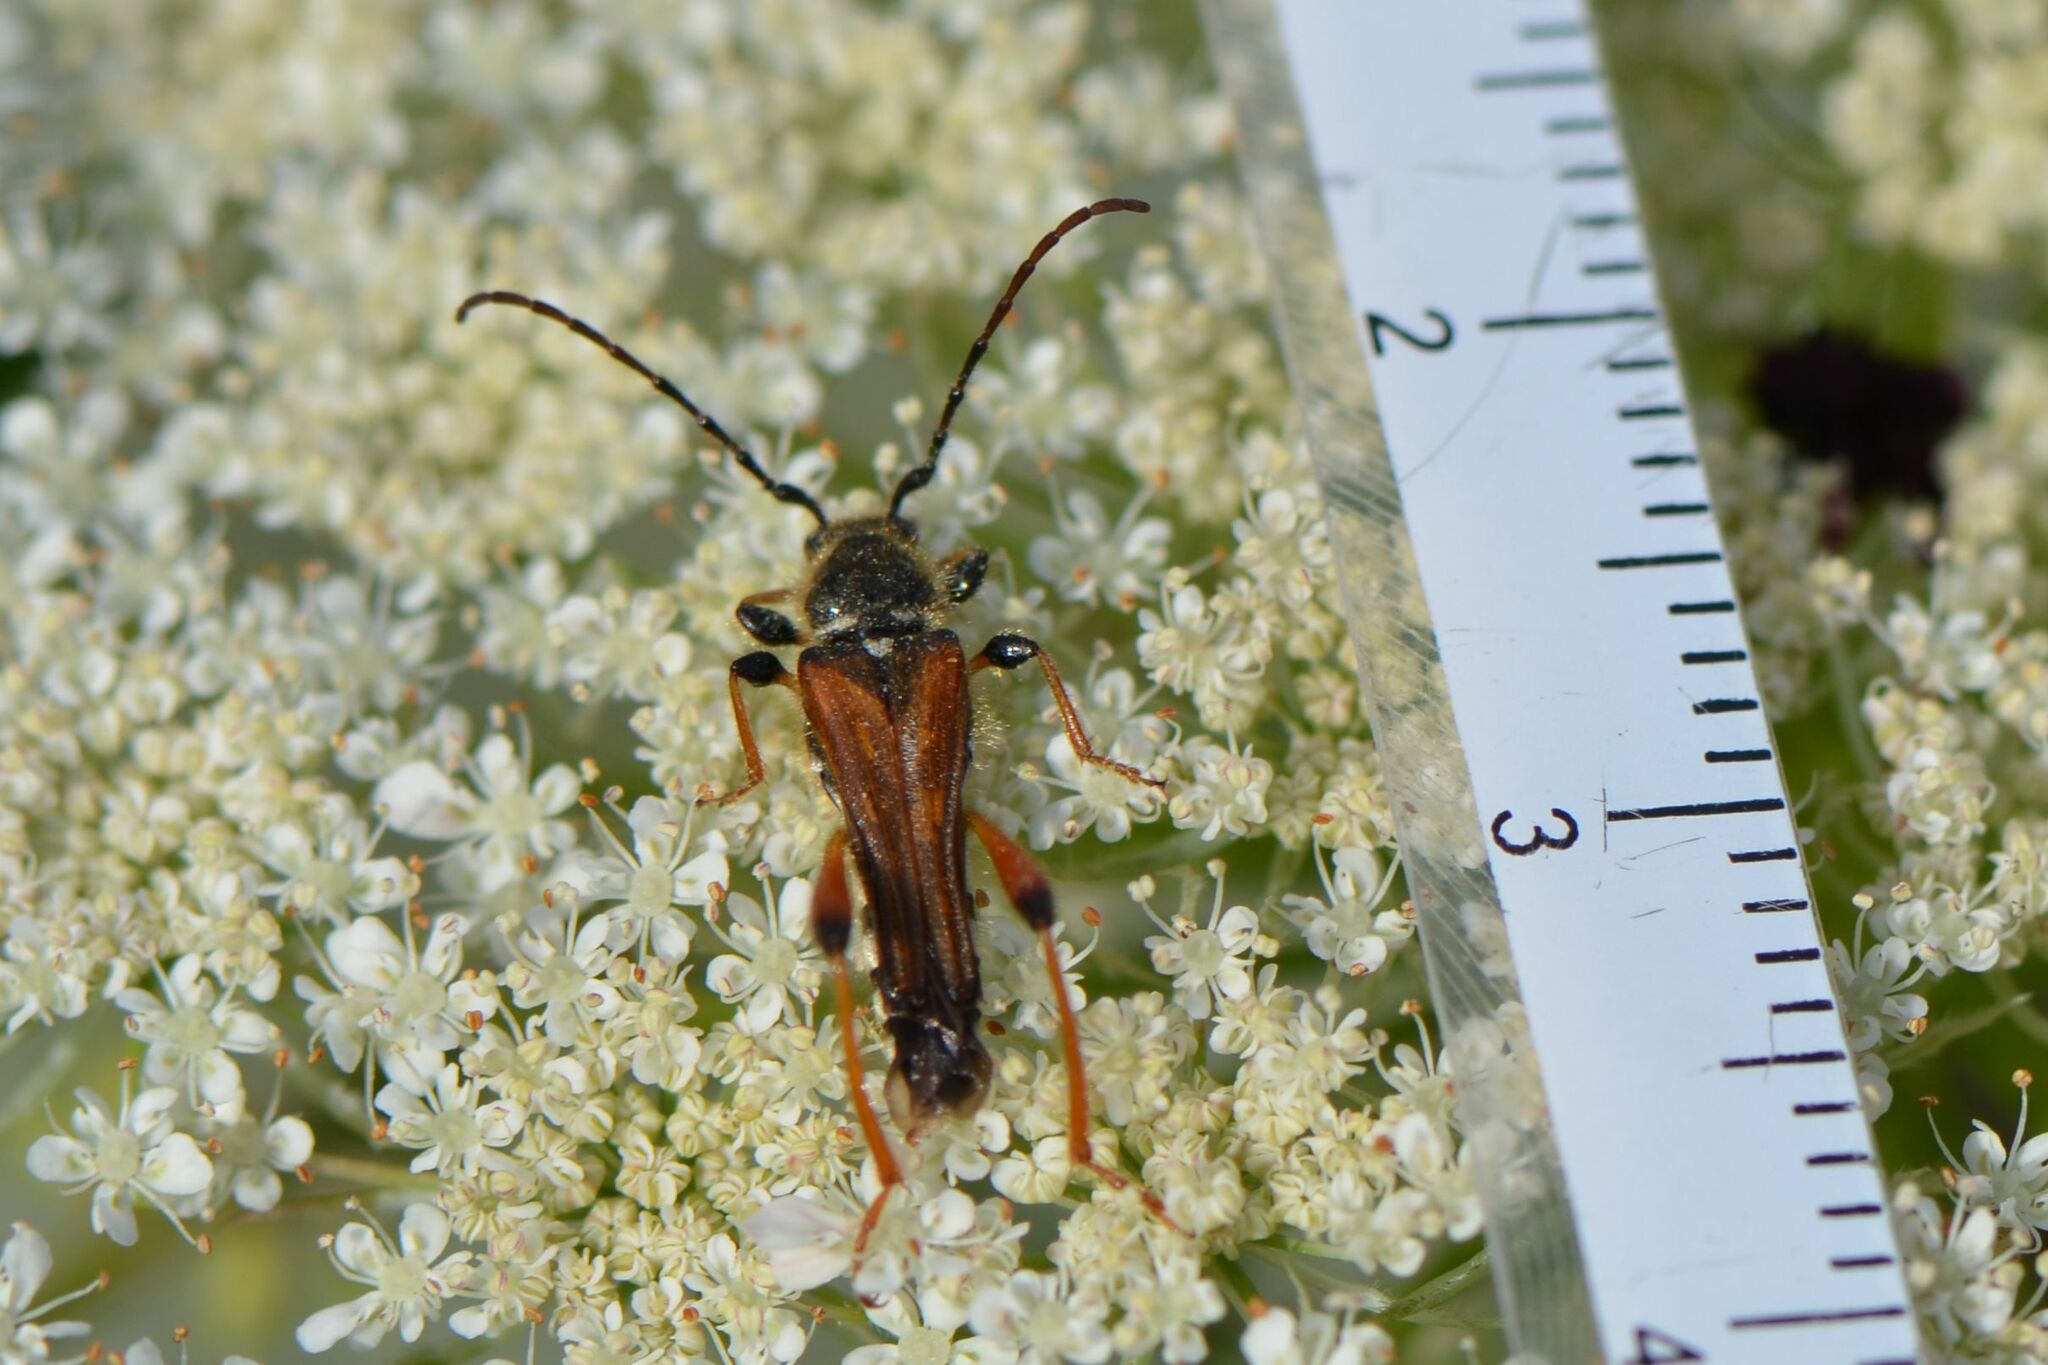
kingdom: Animalia
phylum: Arthropoda
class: Insecta
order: Coleoptera
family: Cerambycidae
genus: Stenopterus
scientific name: Stenopterus rufus
